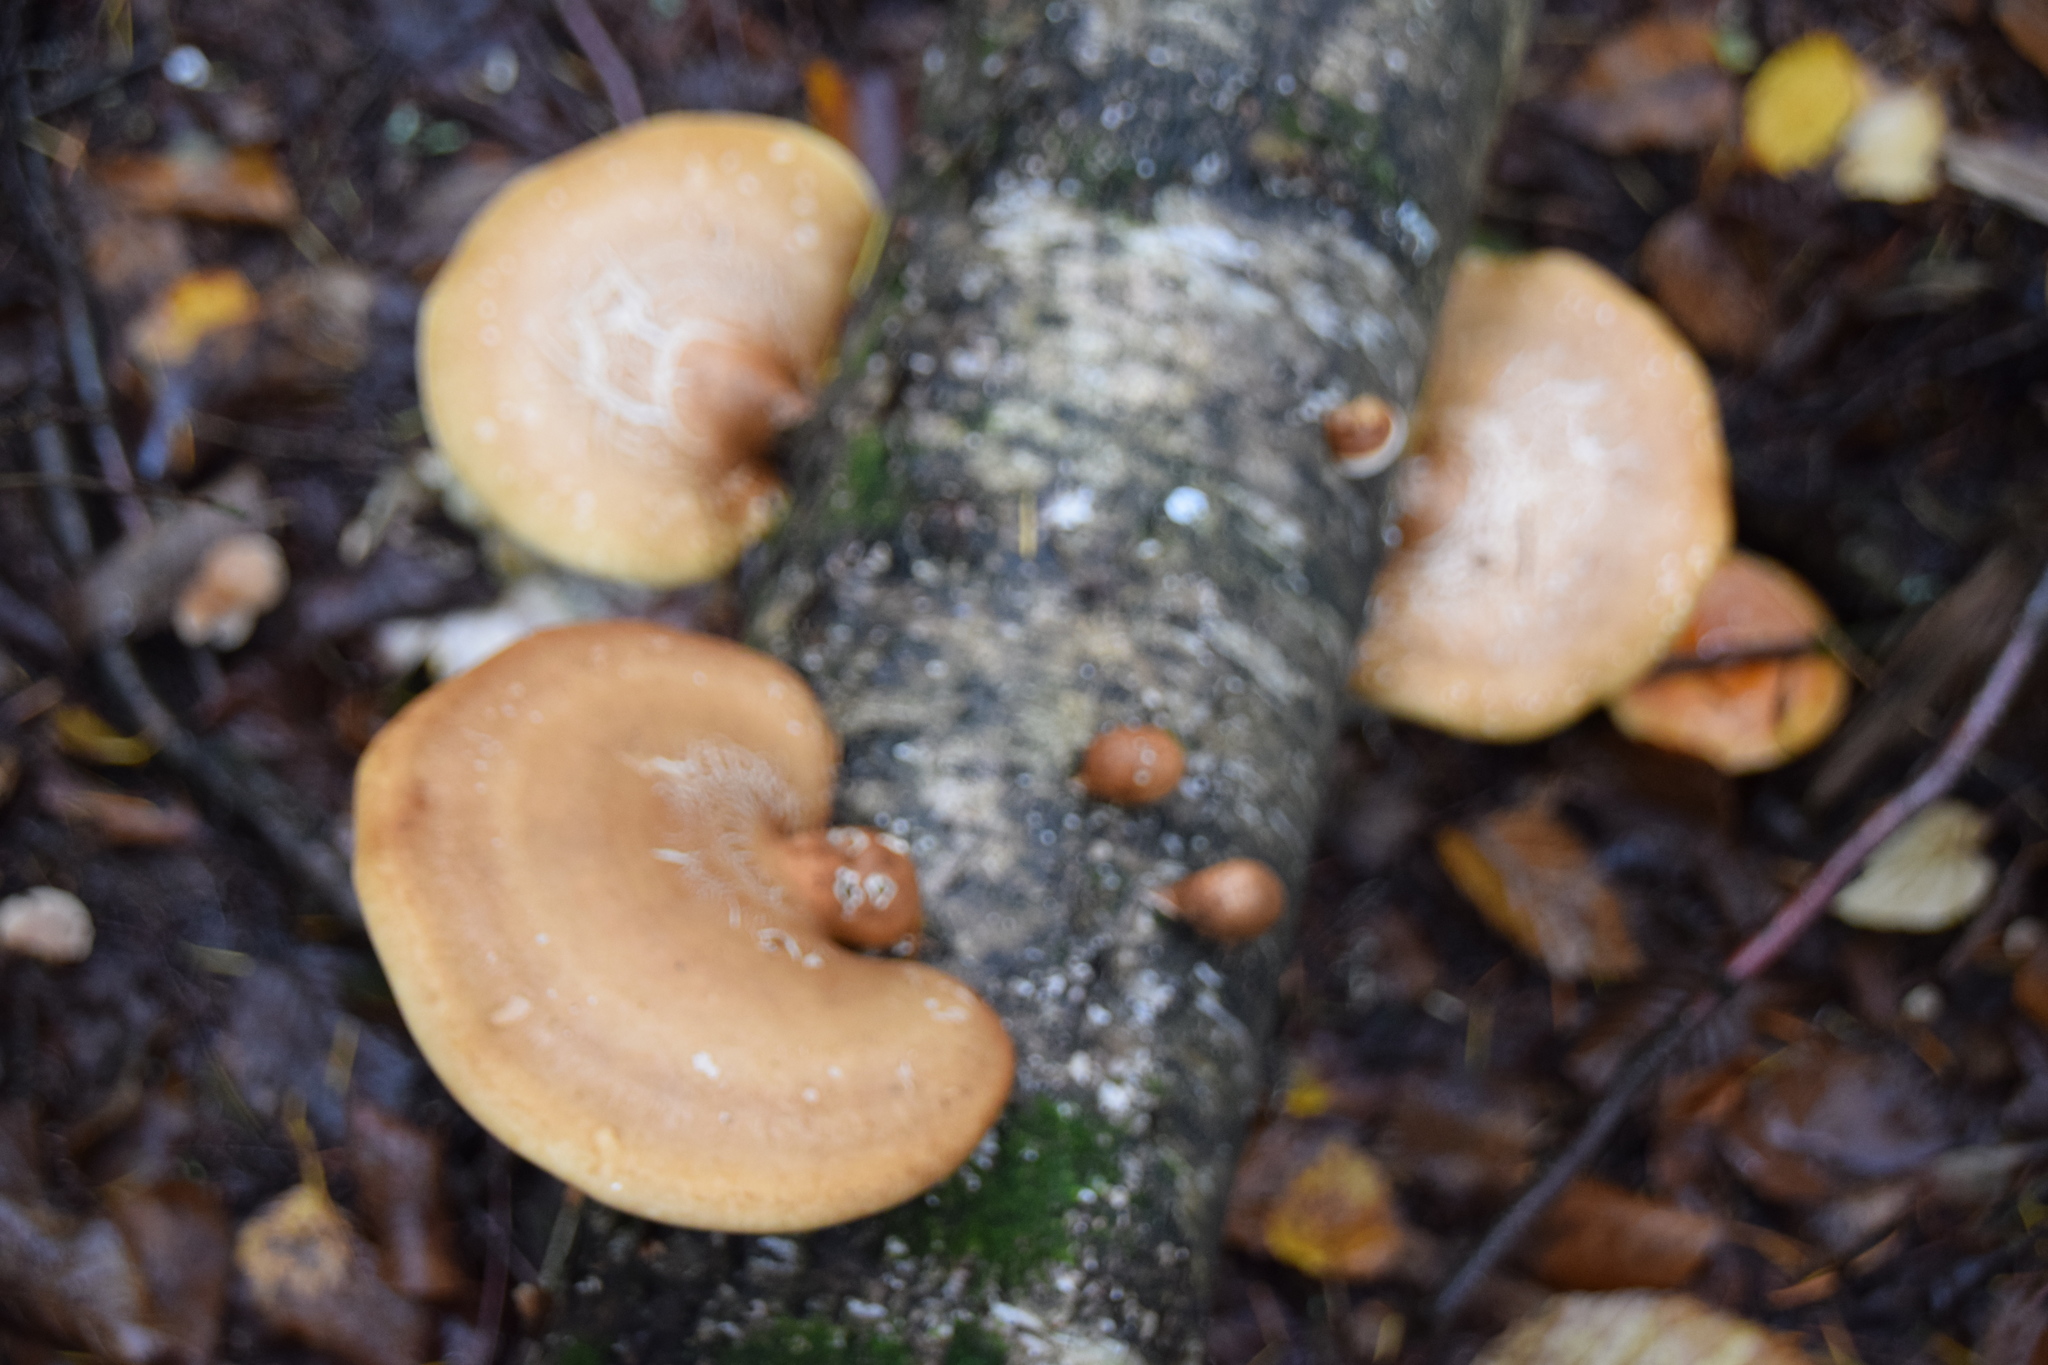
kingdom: Fungi
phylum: Basidiomycota
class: Agaricomycetes
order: Polyporales
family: Fomitopsidaceae
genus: Fomitopsis
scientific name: Fomitopsis betulina
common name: Birch polypore
